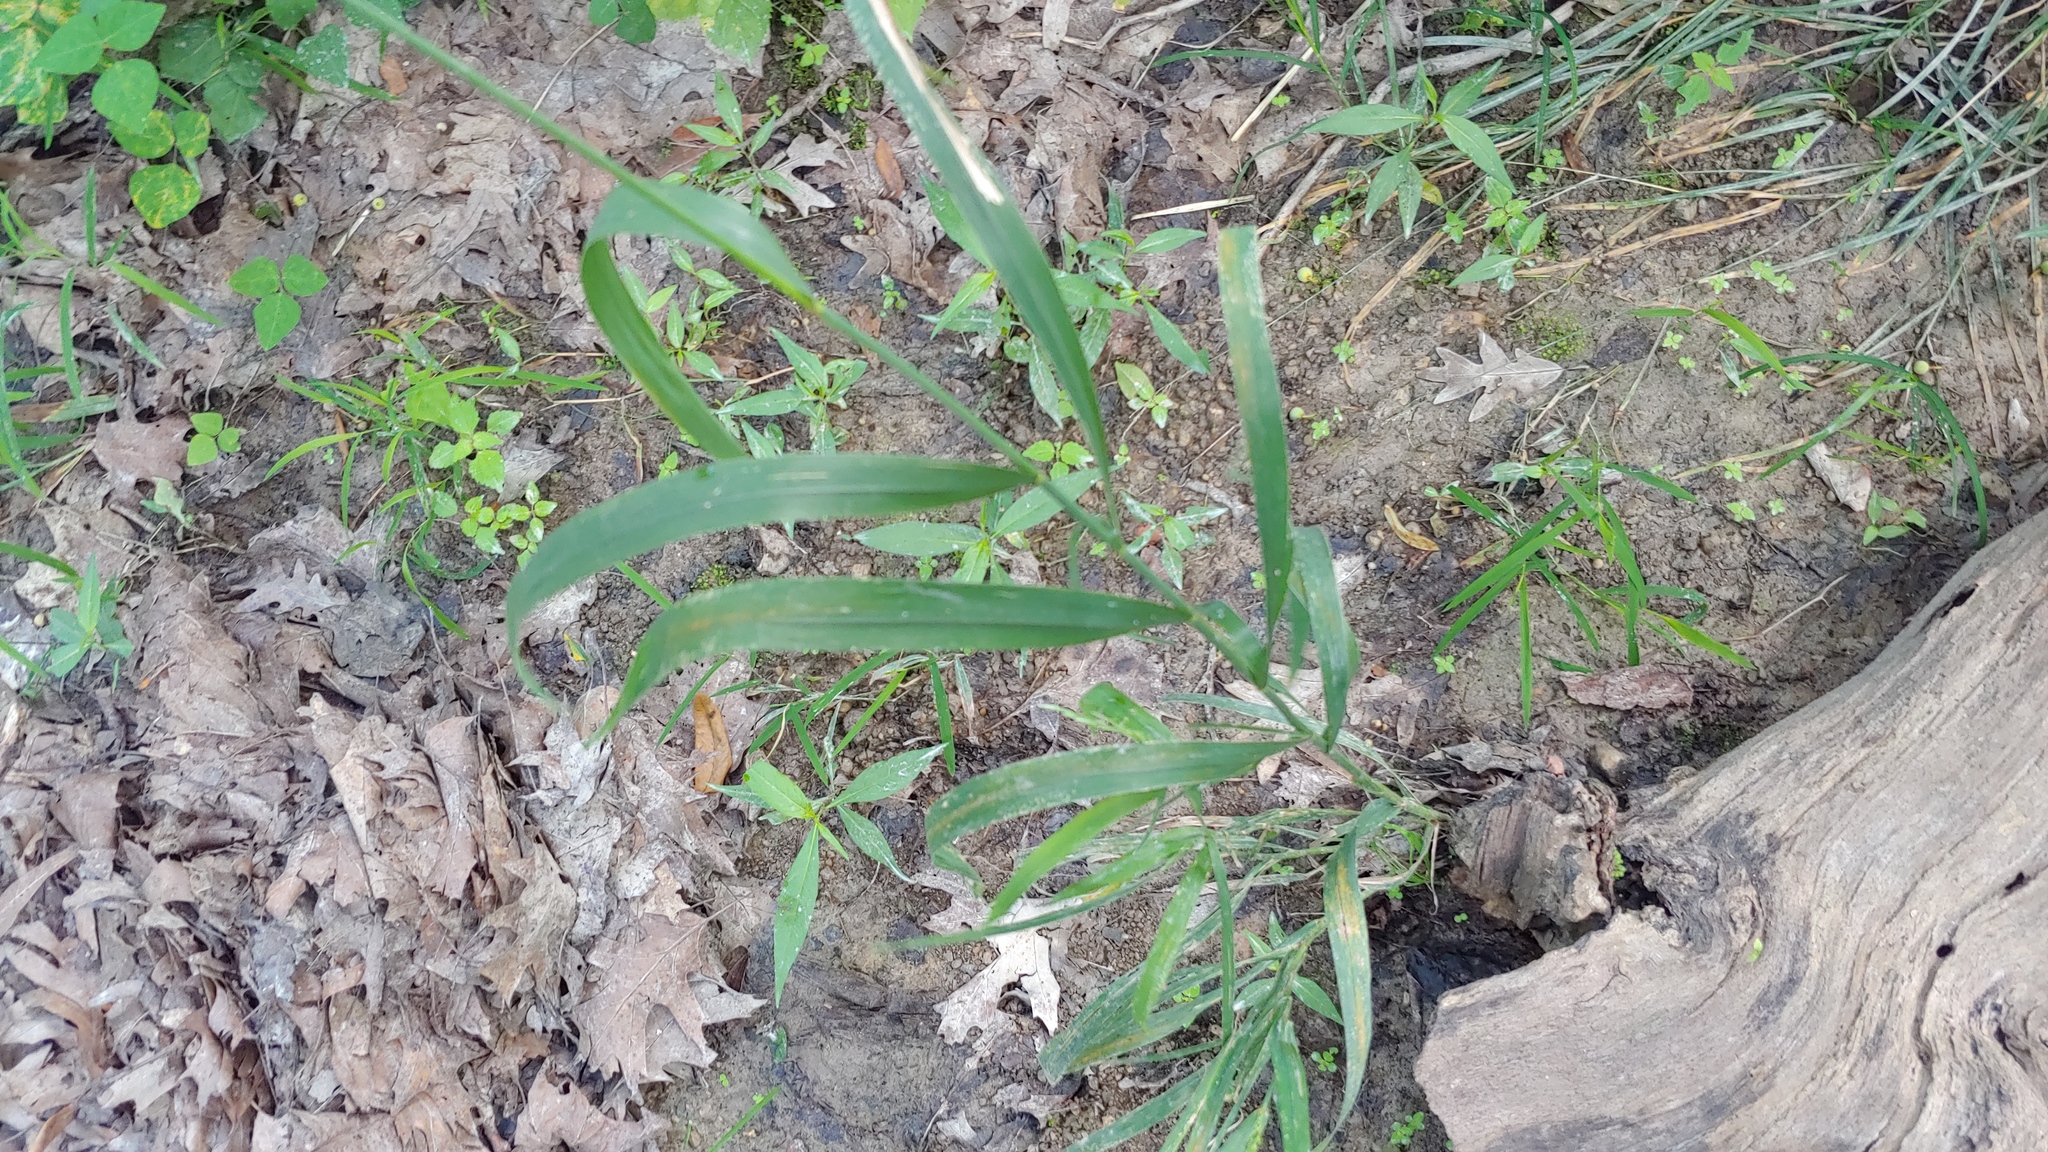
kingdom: Plantae
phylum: Tracheophyta
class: Liliopsida
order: Poales
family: Poaceae
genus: Cinna
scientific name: Cinna arundinacea
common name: Stout woodreed
